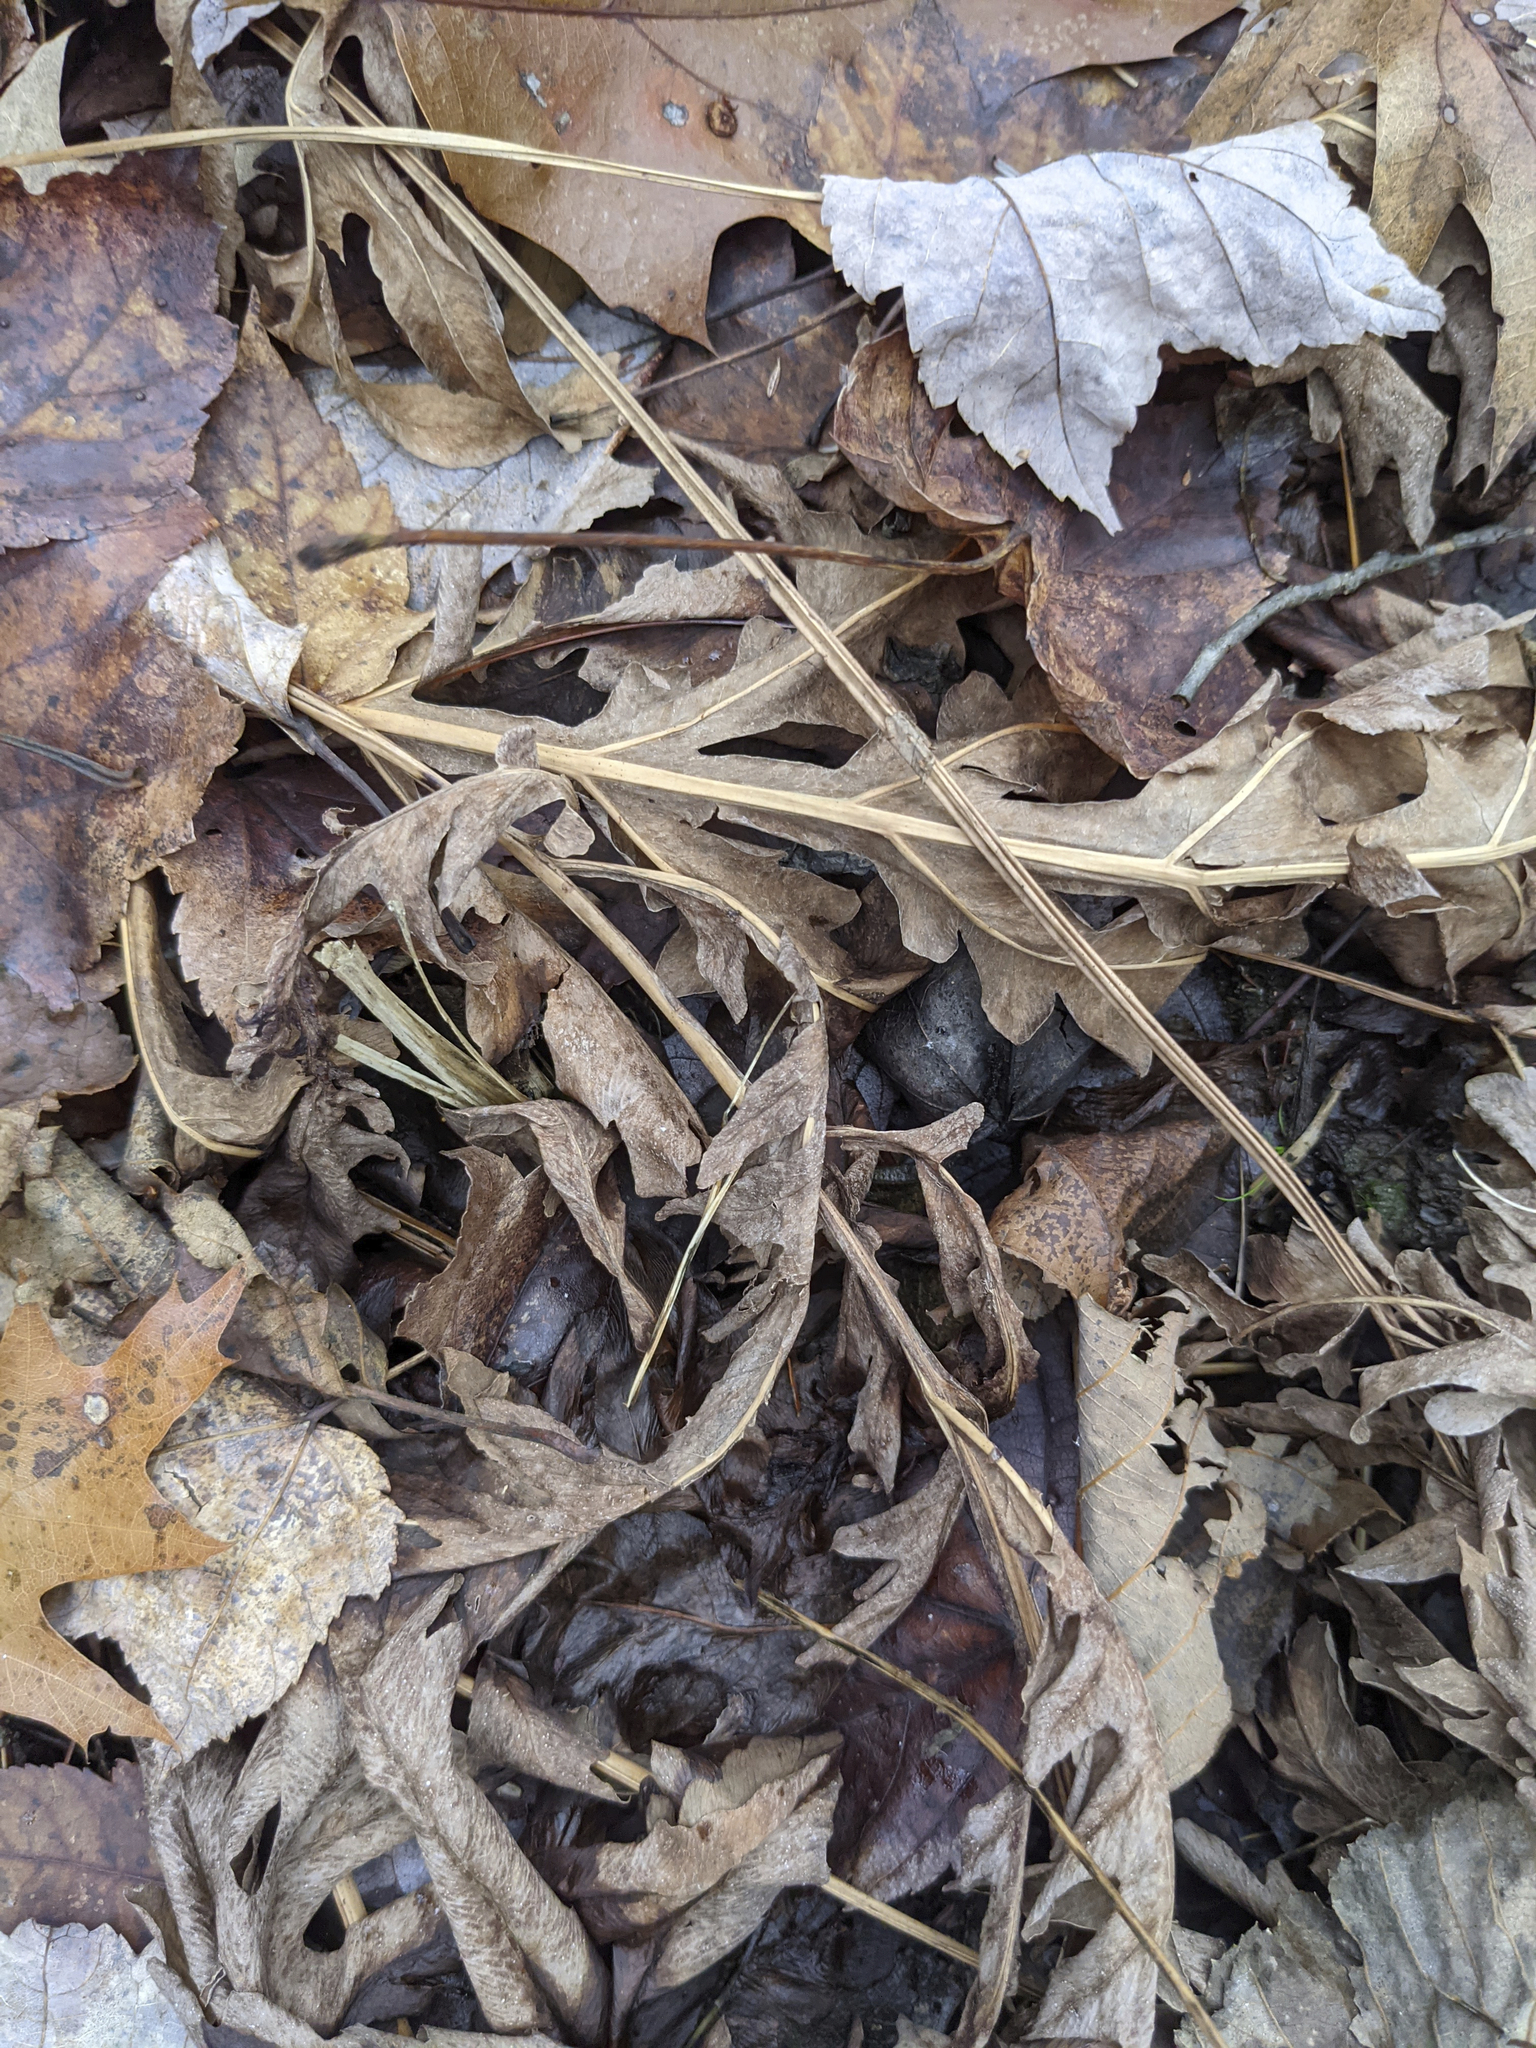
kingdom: Plantae
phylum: Tracheophyta
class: Polypodiopsida
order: Polypodiales
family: Onocleaceae
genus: Onoclea
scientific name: Onoclea sensibilis
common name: Sensitive fern
